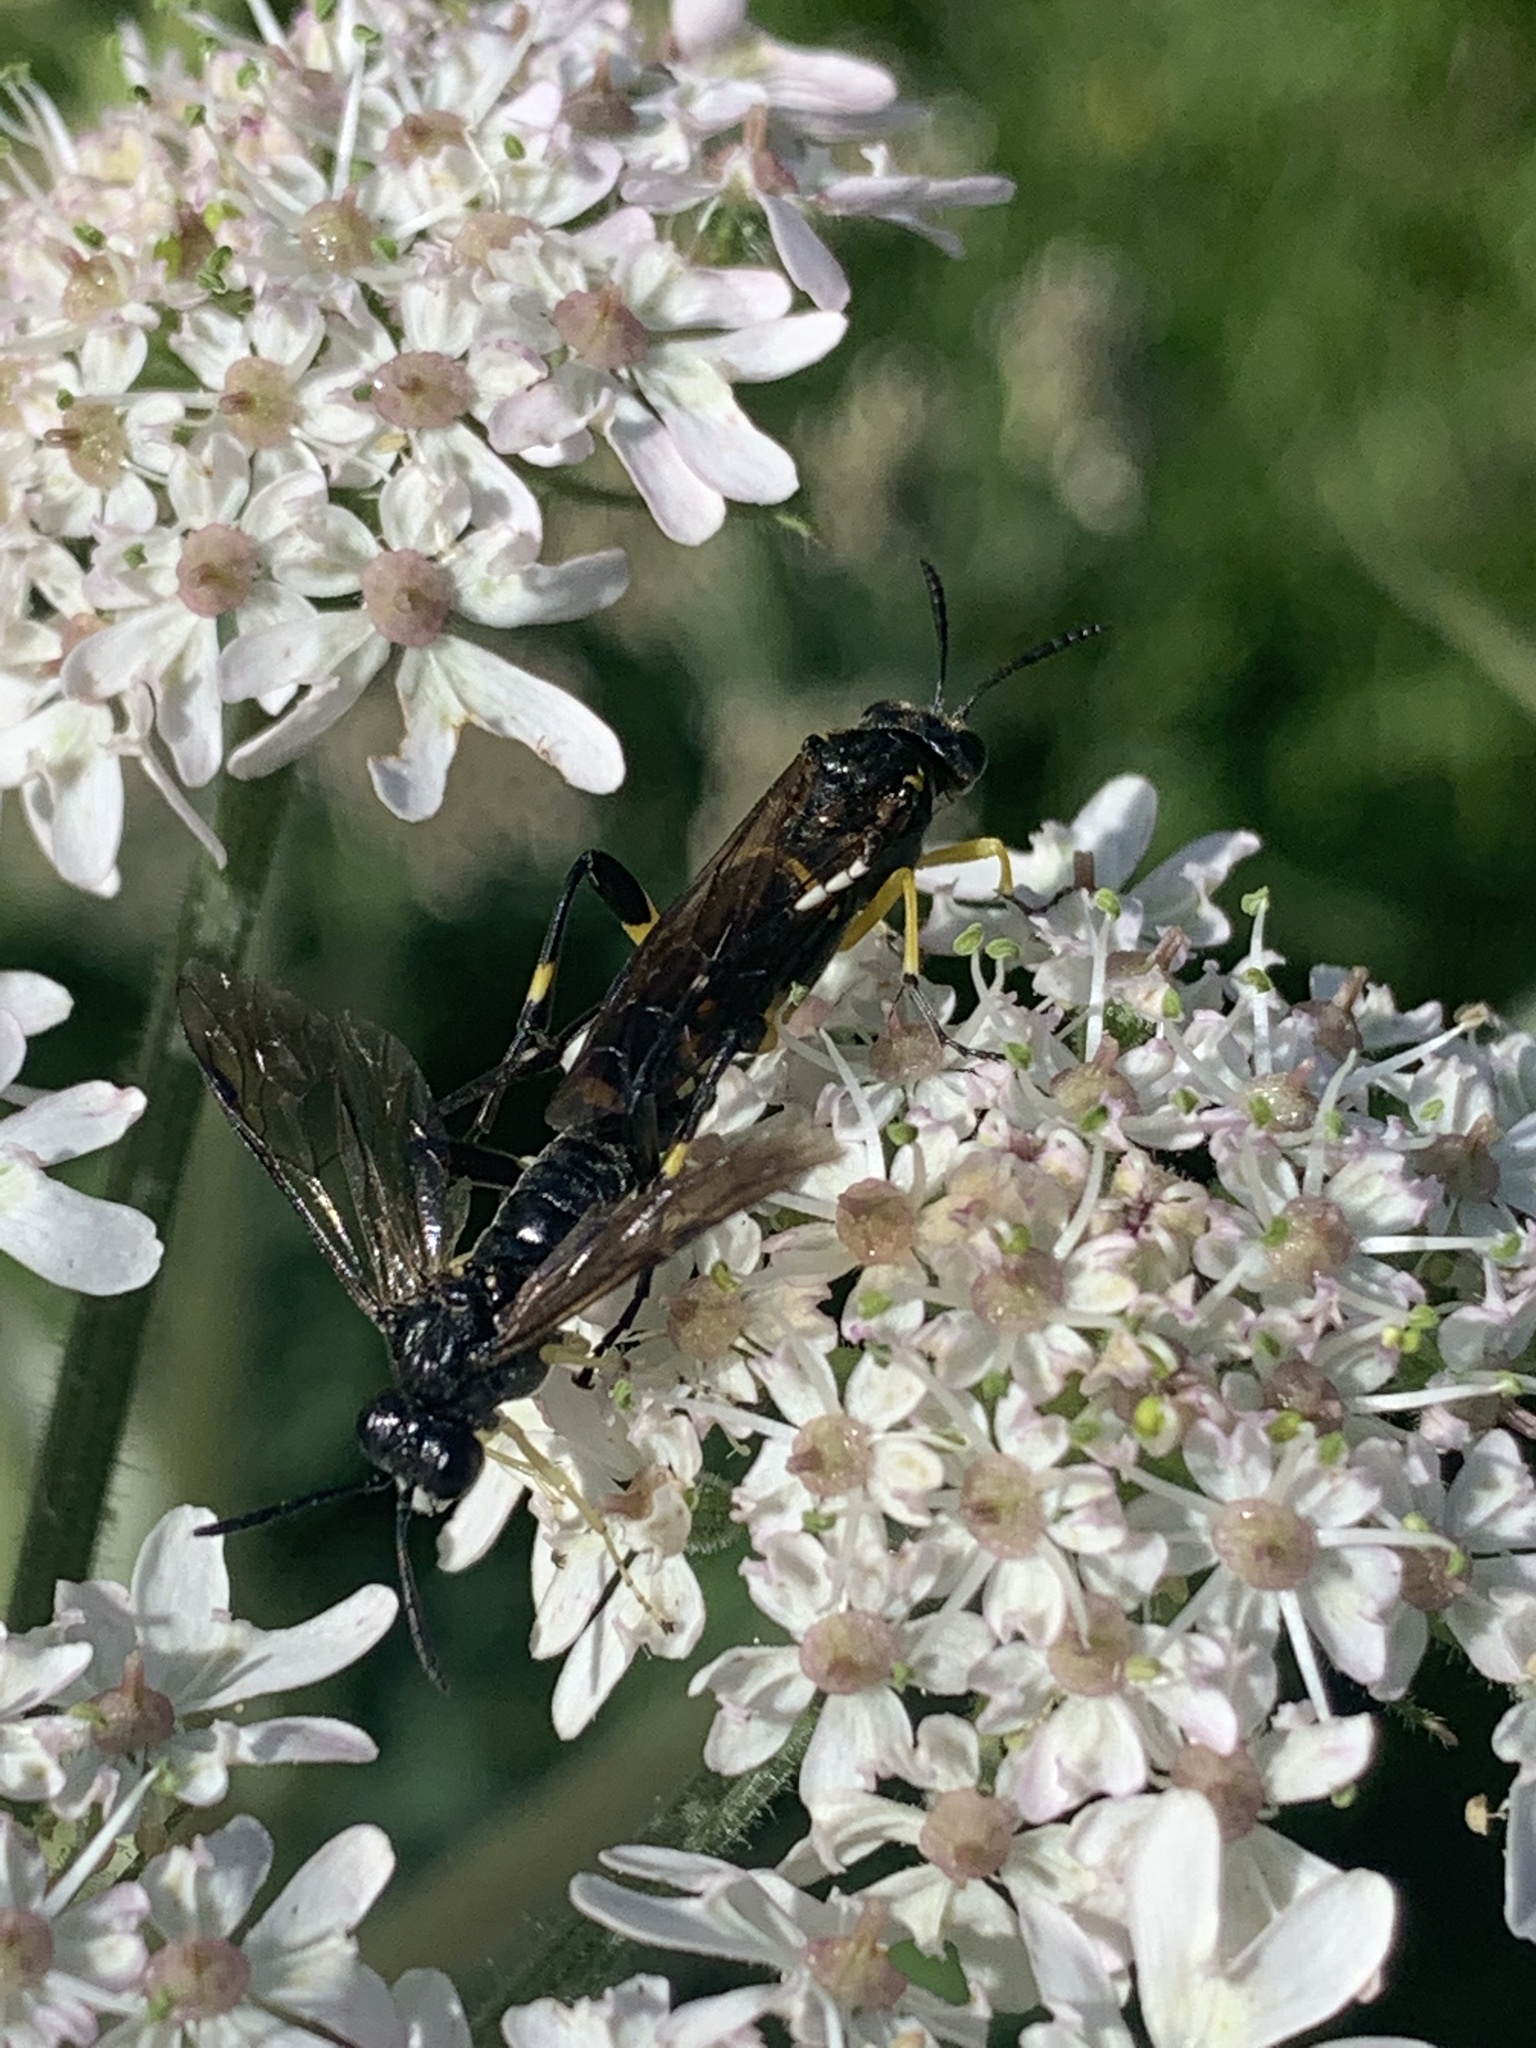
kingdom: Animalia
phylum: Arthropoda
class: Insecta
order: Hymenoptera
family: Tenthredinidae
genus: Macrophya
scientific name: Macrophya montana
